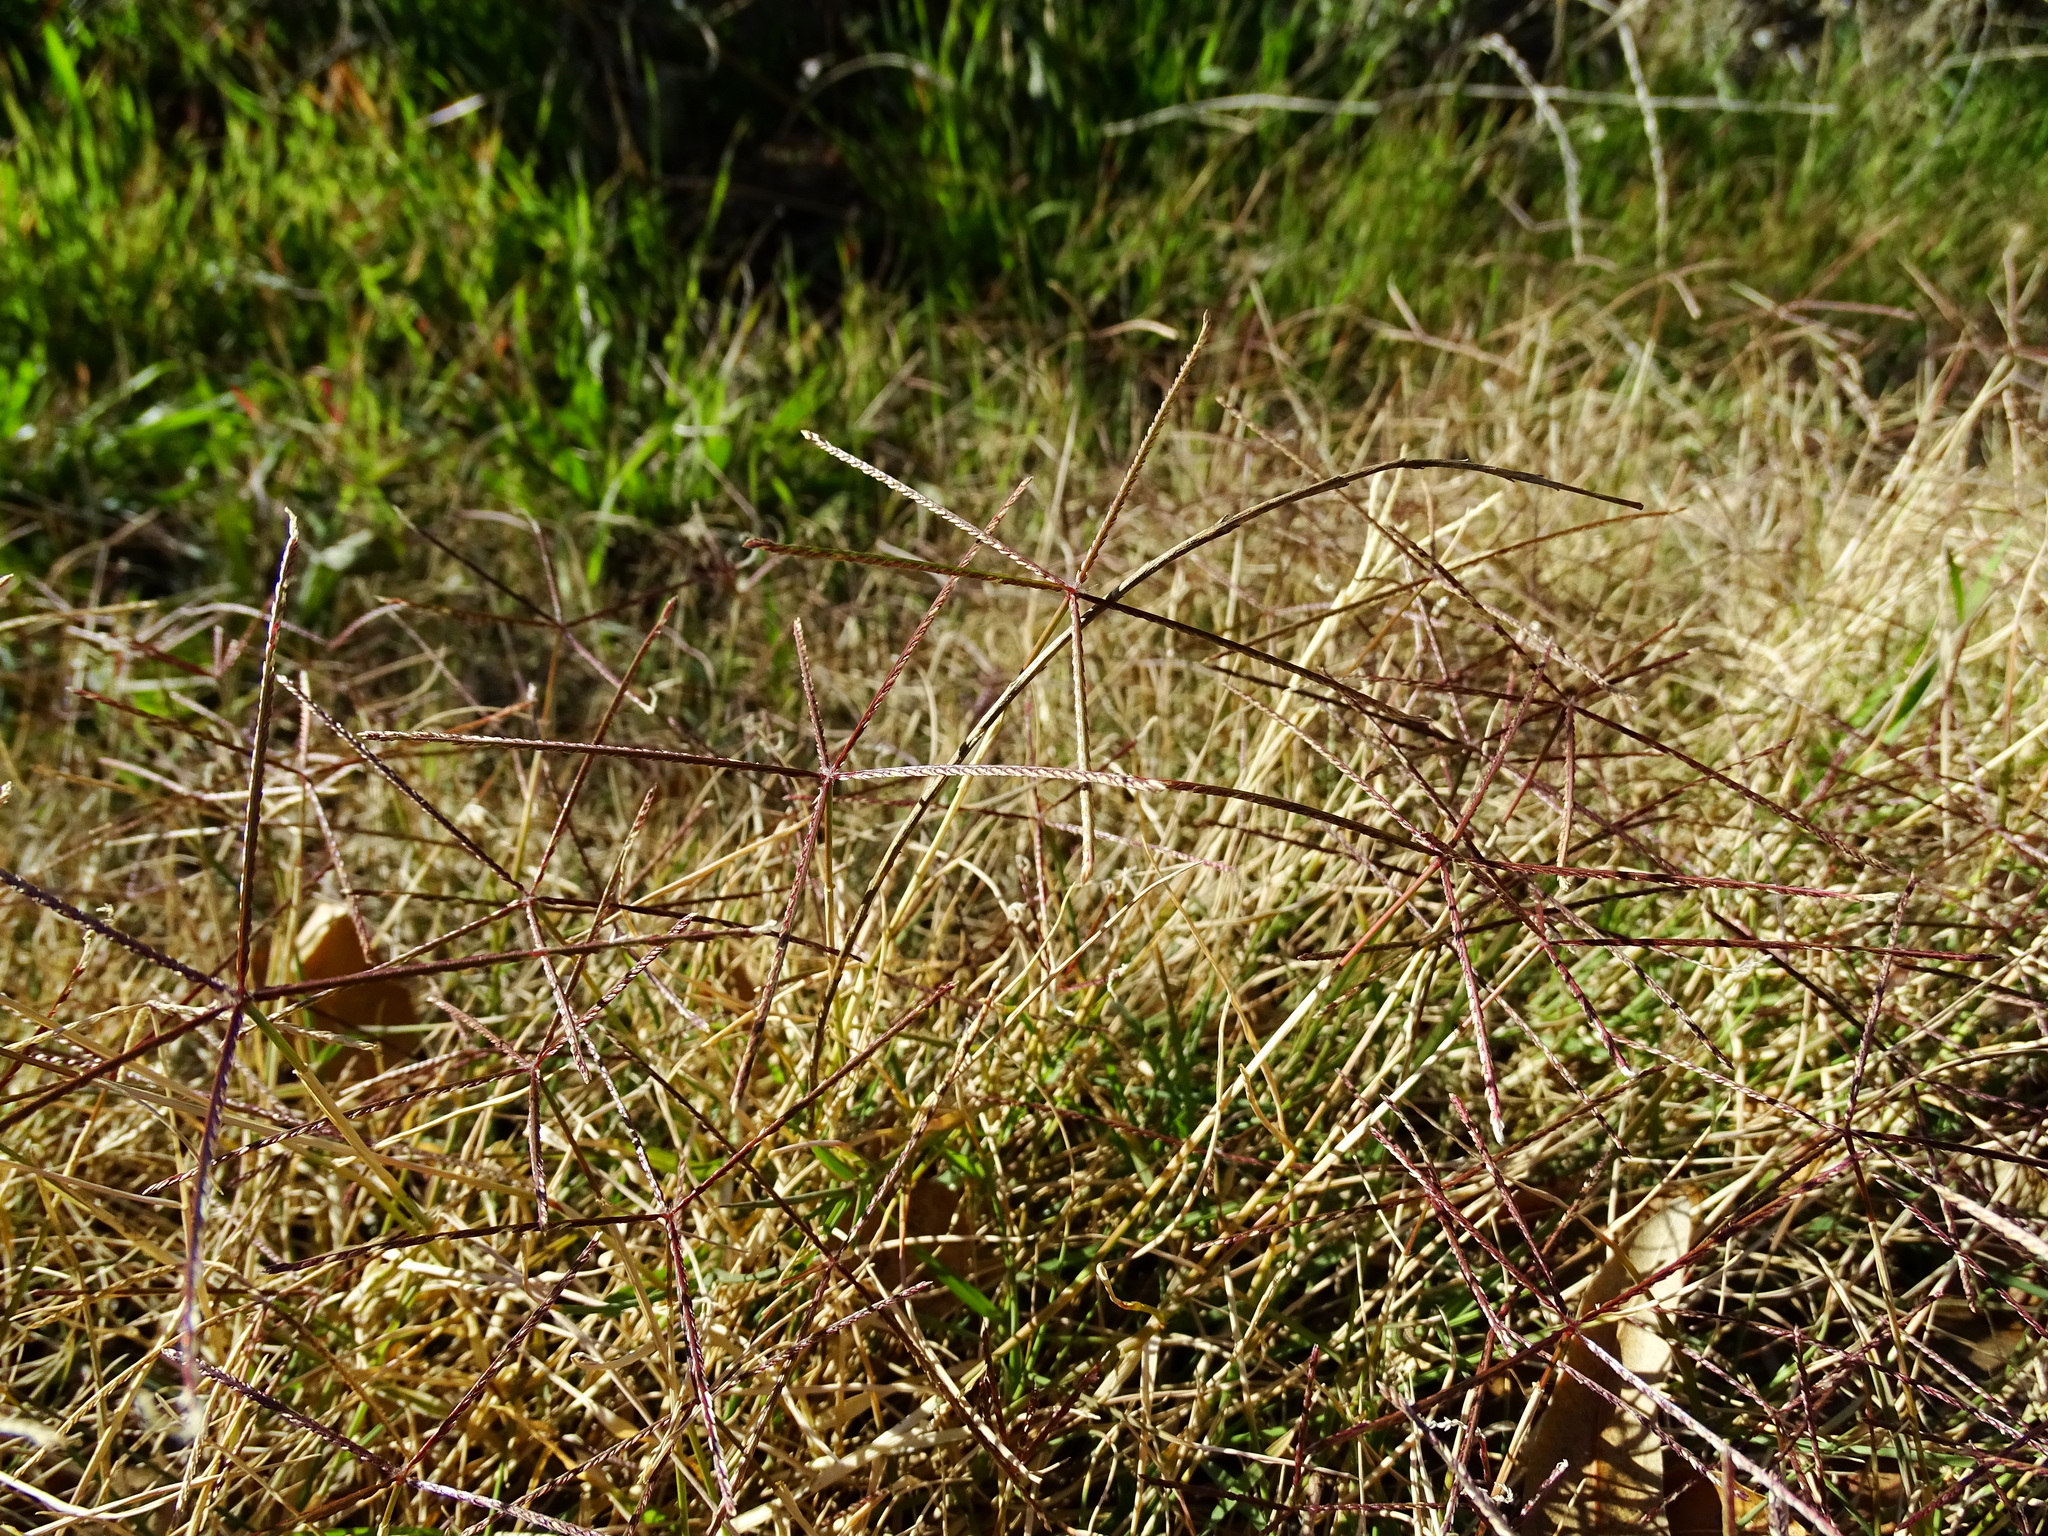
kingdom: Plantae
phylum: Tracheophyta
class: Liliopsida
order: Poales
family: Poaceae
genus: Cynodon
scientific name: Cynodon dactylon
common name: Bermuda grass
